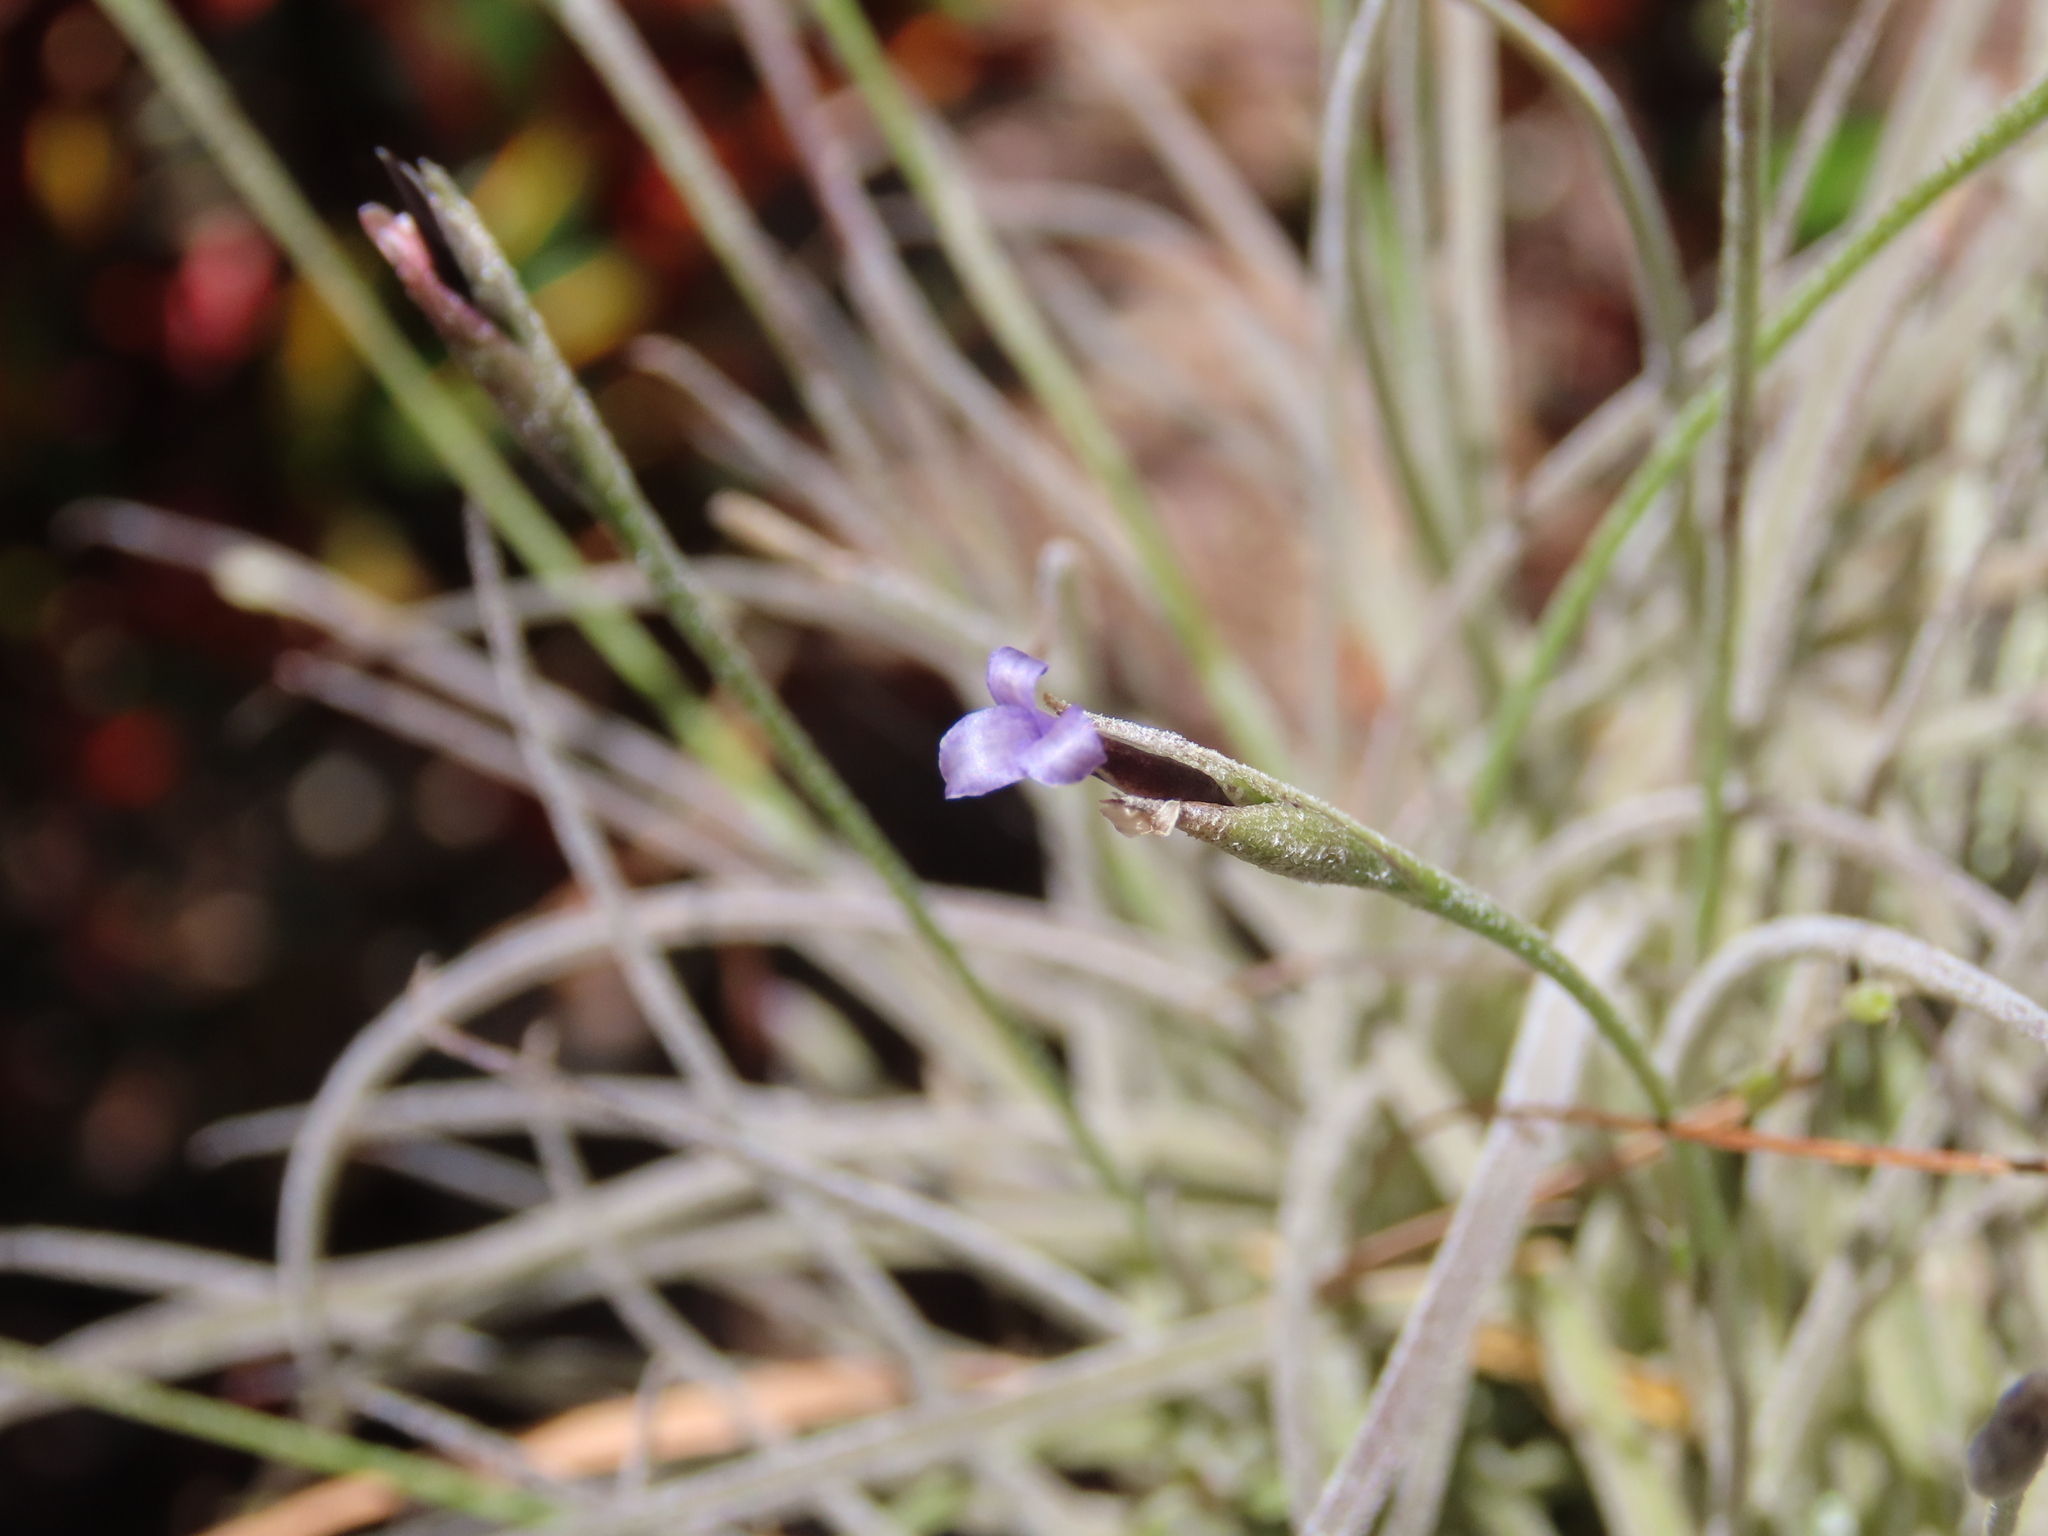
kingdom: Plantae
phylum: Tracheophyta
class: Liliopsida
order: Poales
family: Bromeliaceae
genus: Tillandsia
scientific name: Tillandsia recurvata
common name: Small ballmoss
